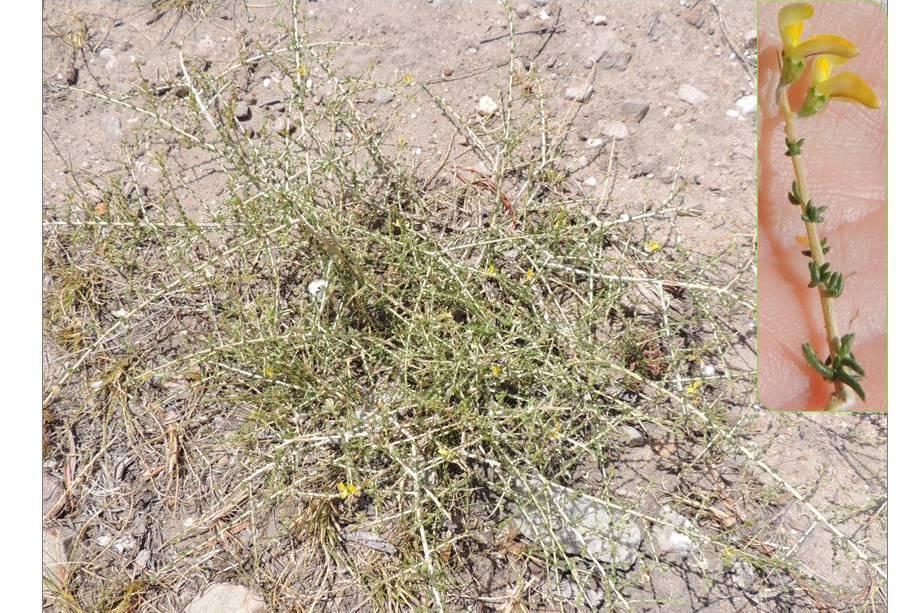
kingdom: Plantae
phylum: Tracheophyta
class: Magnoliopsida
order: Fabales
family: Fabaceae
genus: Aspalathus
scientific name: Aspalathus acuminata
